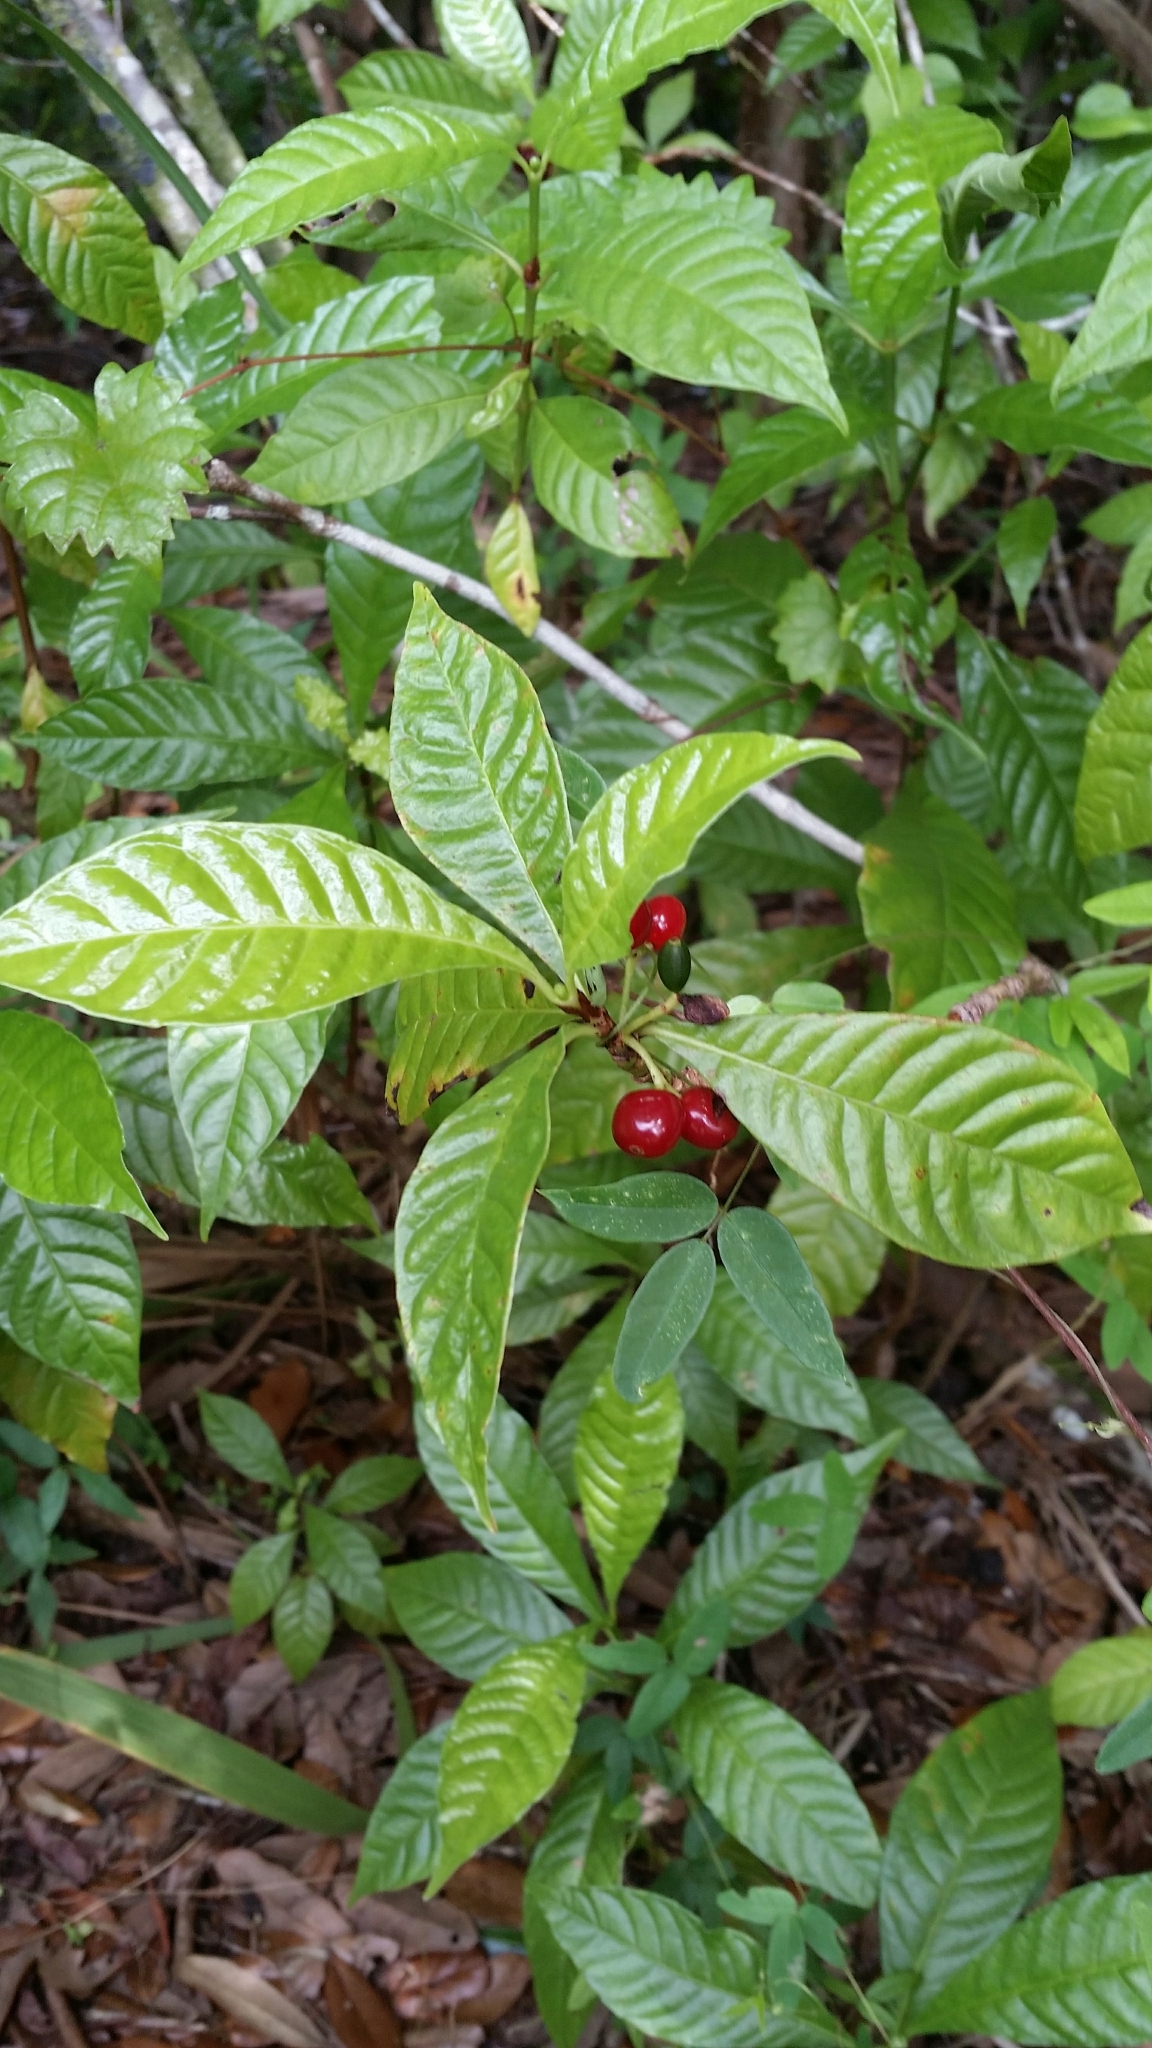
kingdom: Plantae
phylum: Tracheophyta
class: Magnoliopsida
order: Gentianales
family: Rubiaceae
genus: Psychotria
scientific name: Psychotria nervosa
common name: Bastard cankerberry
